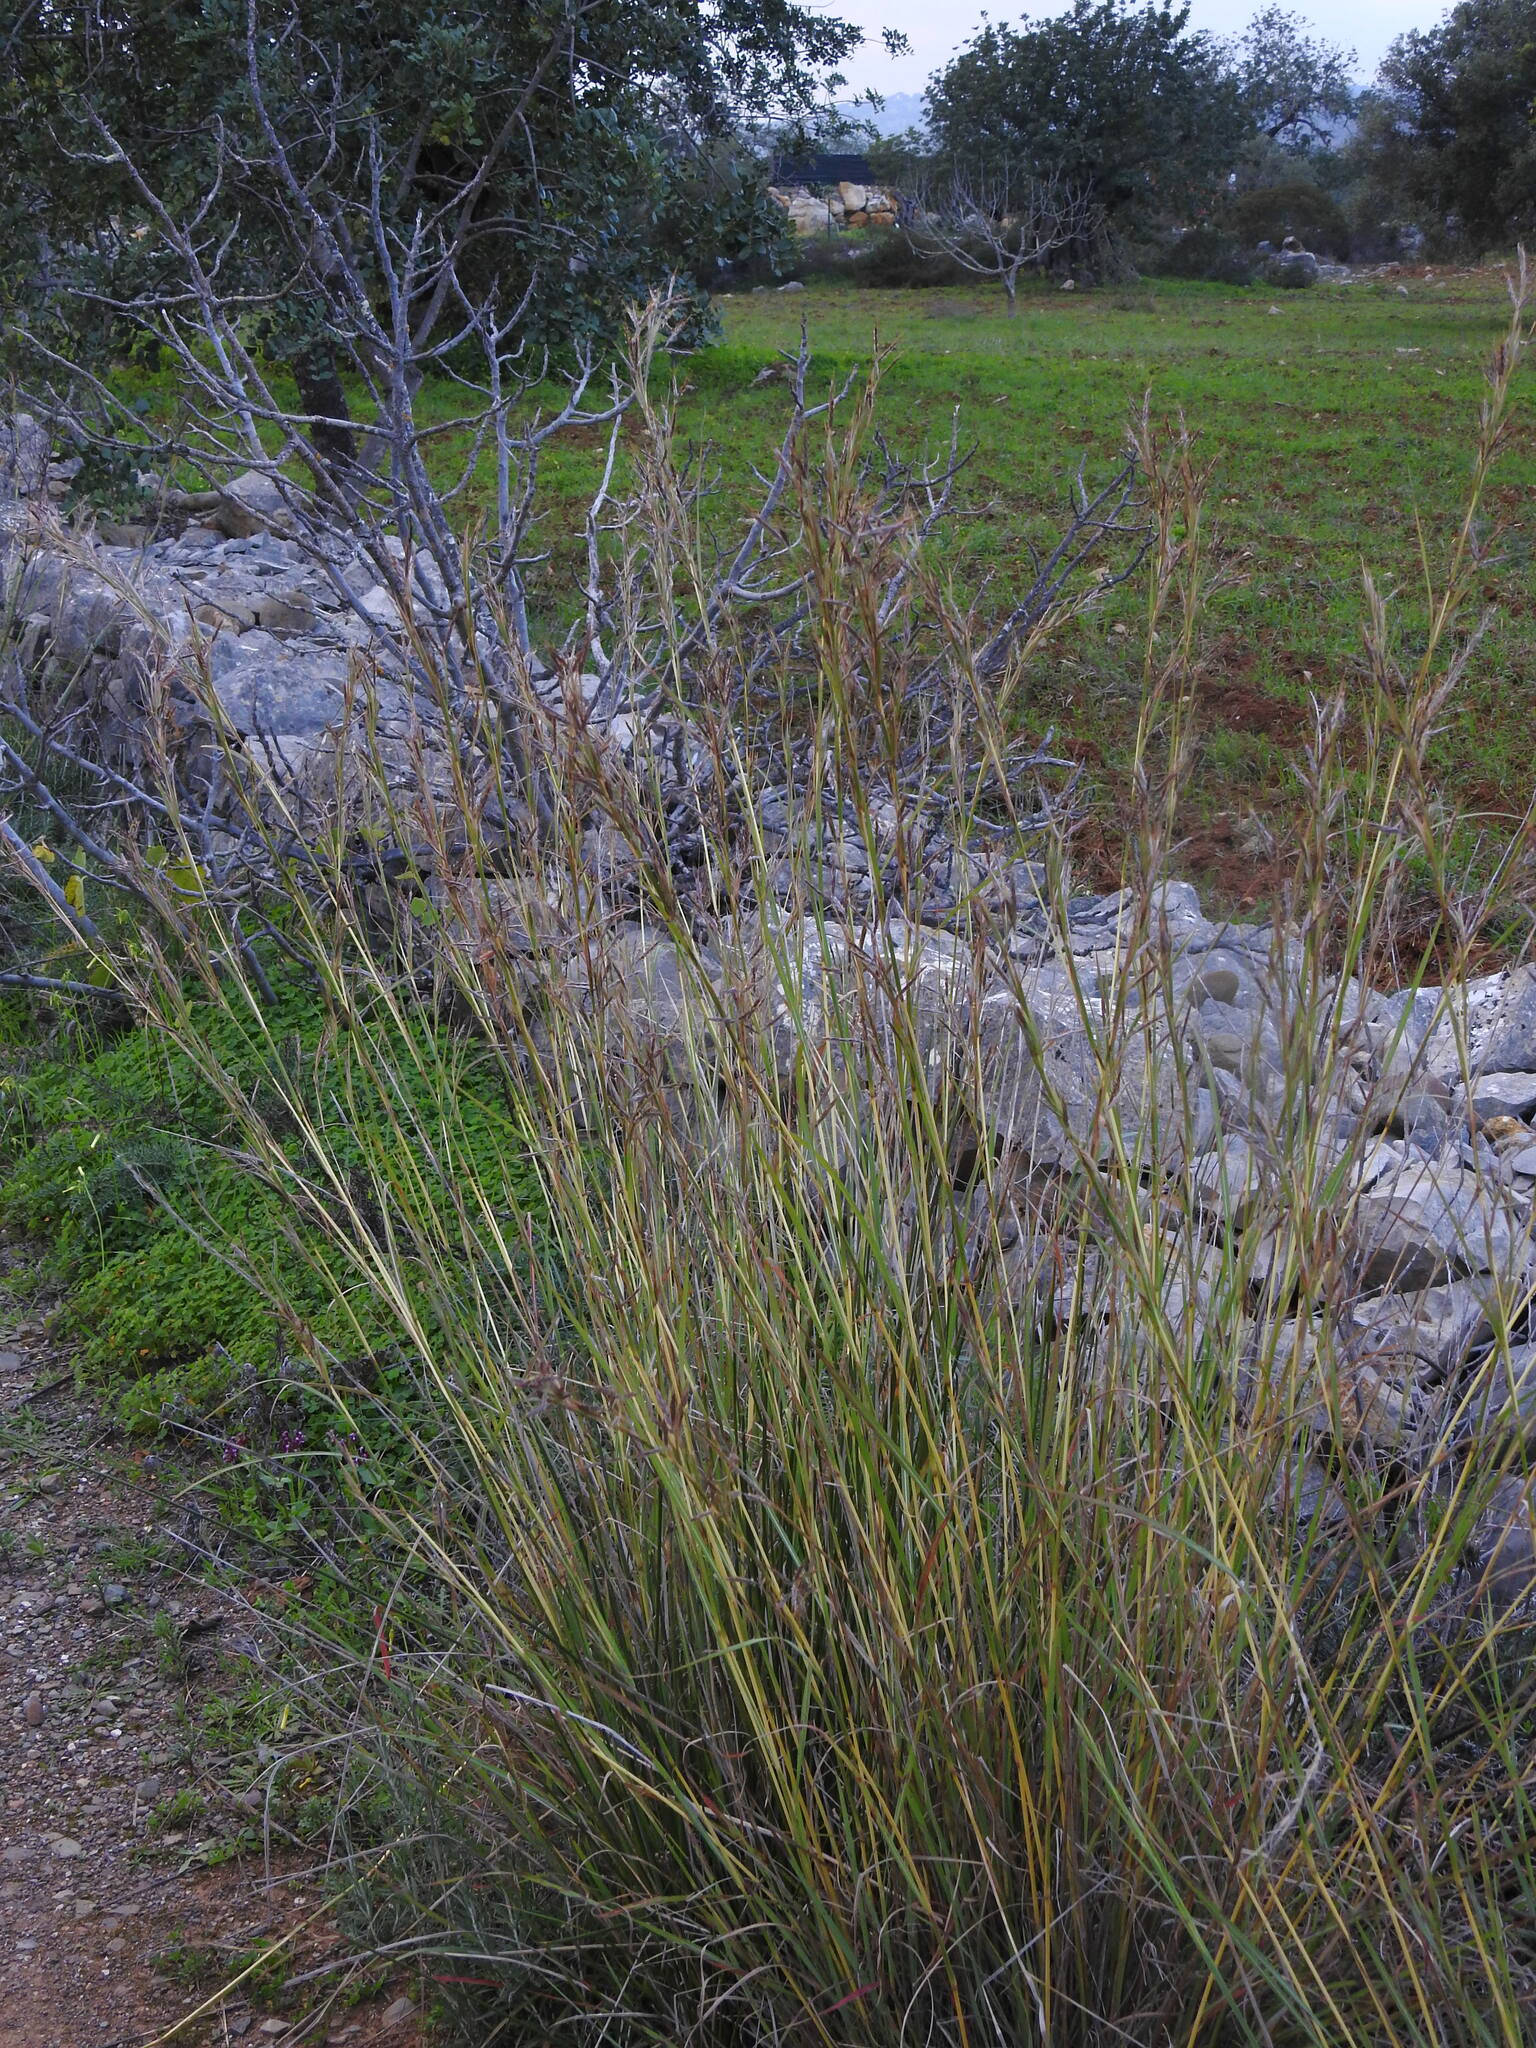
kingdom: Plantae
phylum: Tracheophyta
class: Liliopsida
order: Poales
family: Poaceae
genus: Hyparrhenia
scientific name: Hyparrhenia hirta
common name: Thatching grass
